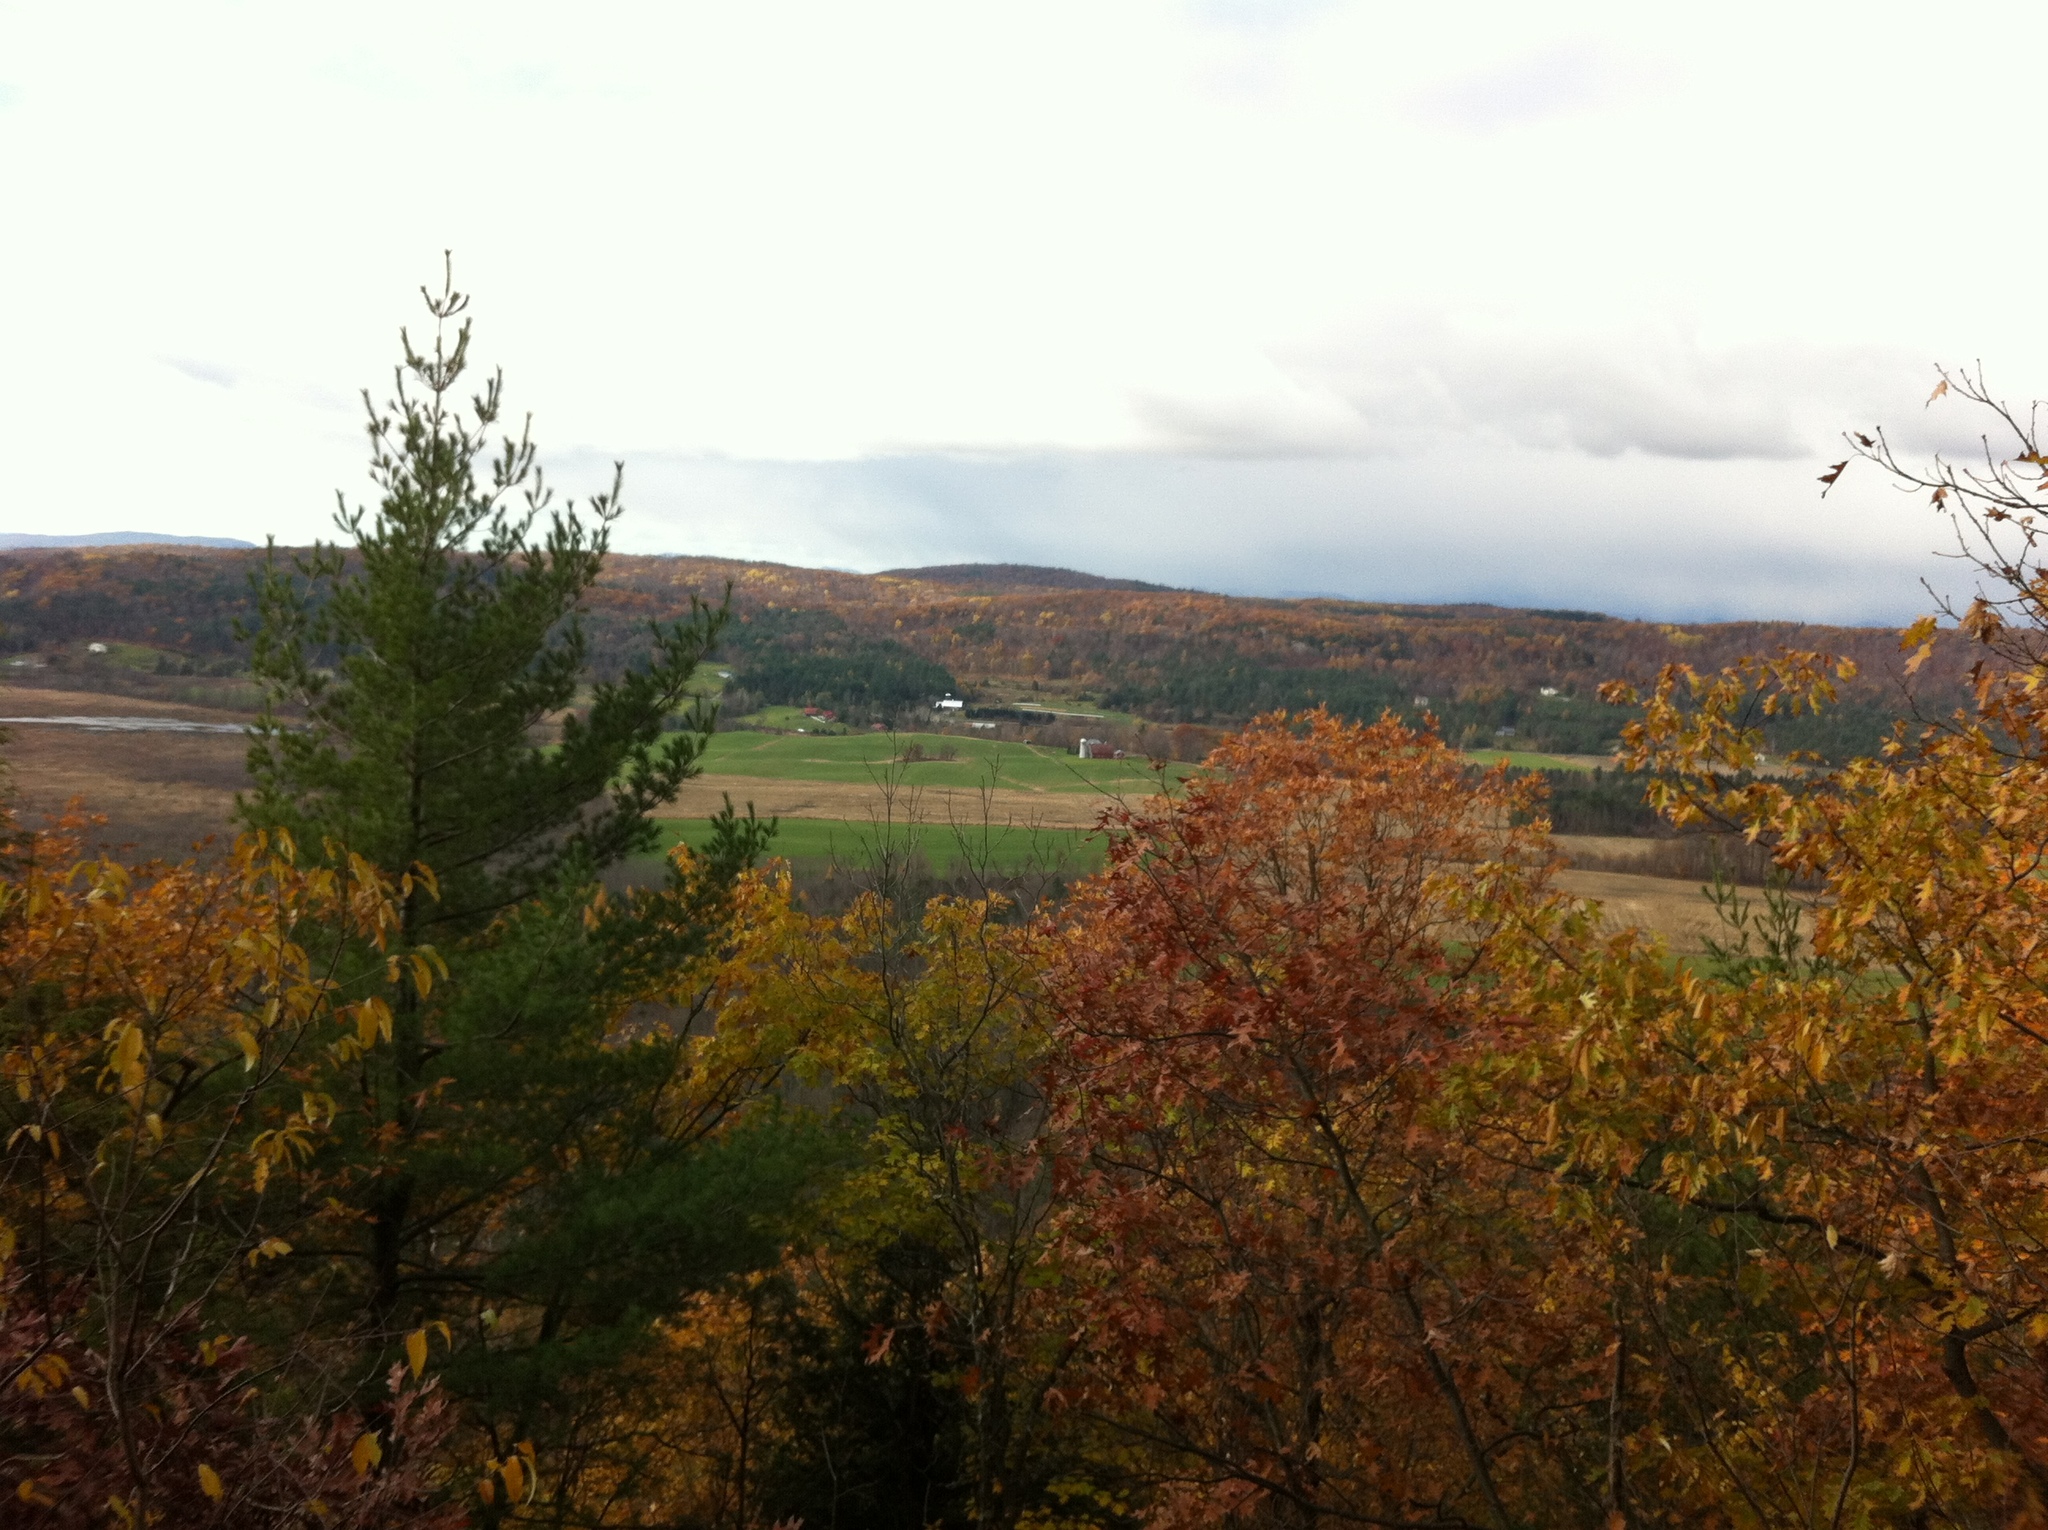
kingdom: Plantae
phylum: Tracheophyta
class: Pinopsida
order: Pinales
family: Pinaceae
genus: Pinus
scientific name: Pinus strobus
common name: Weymouth pine
